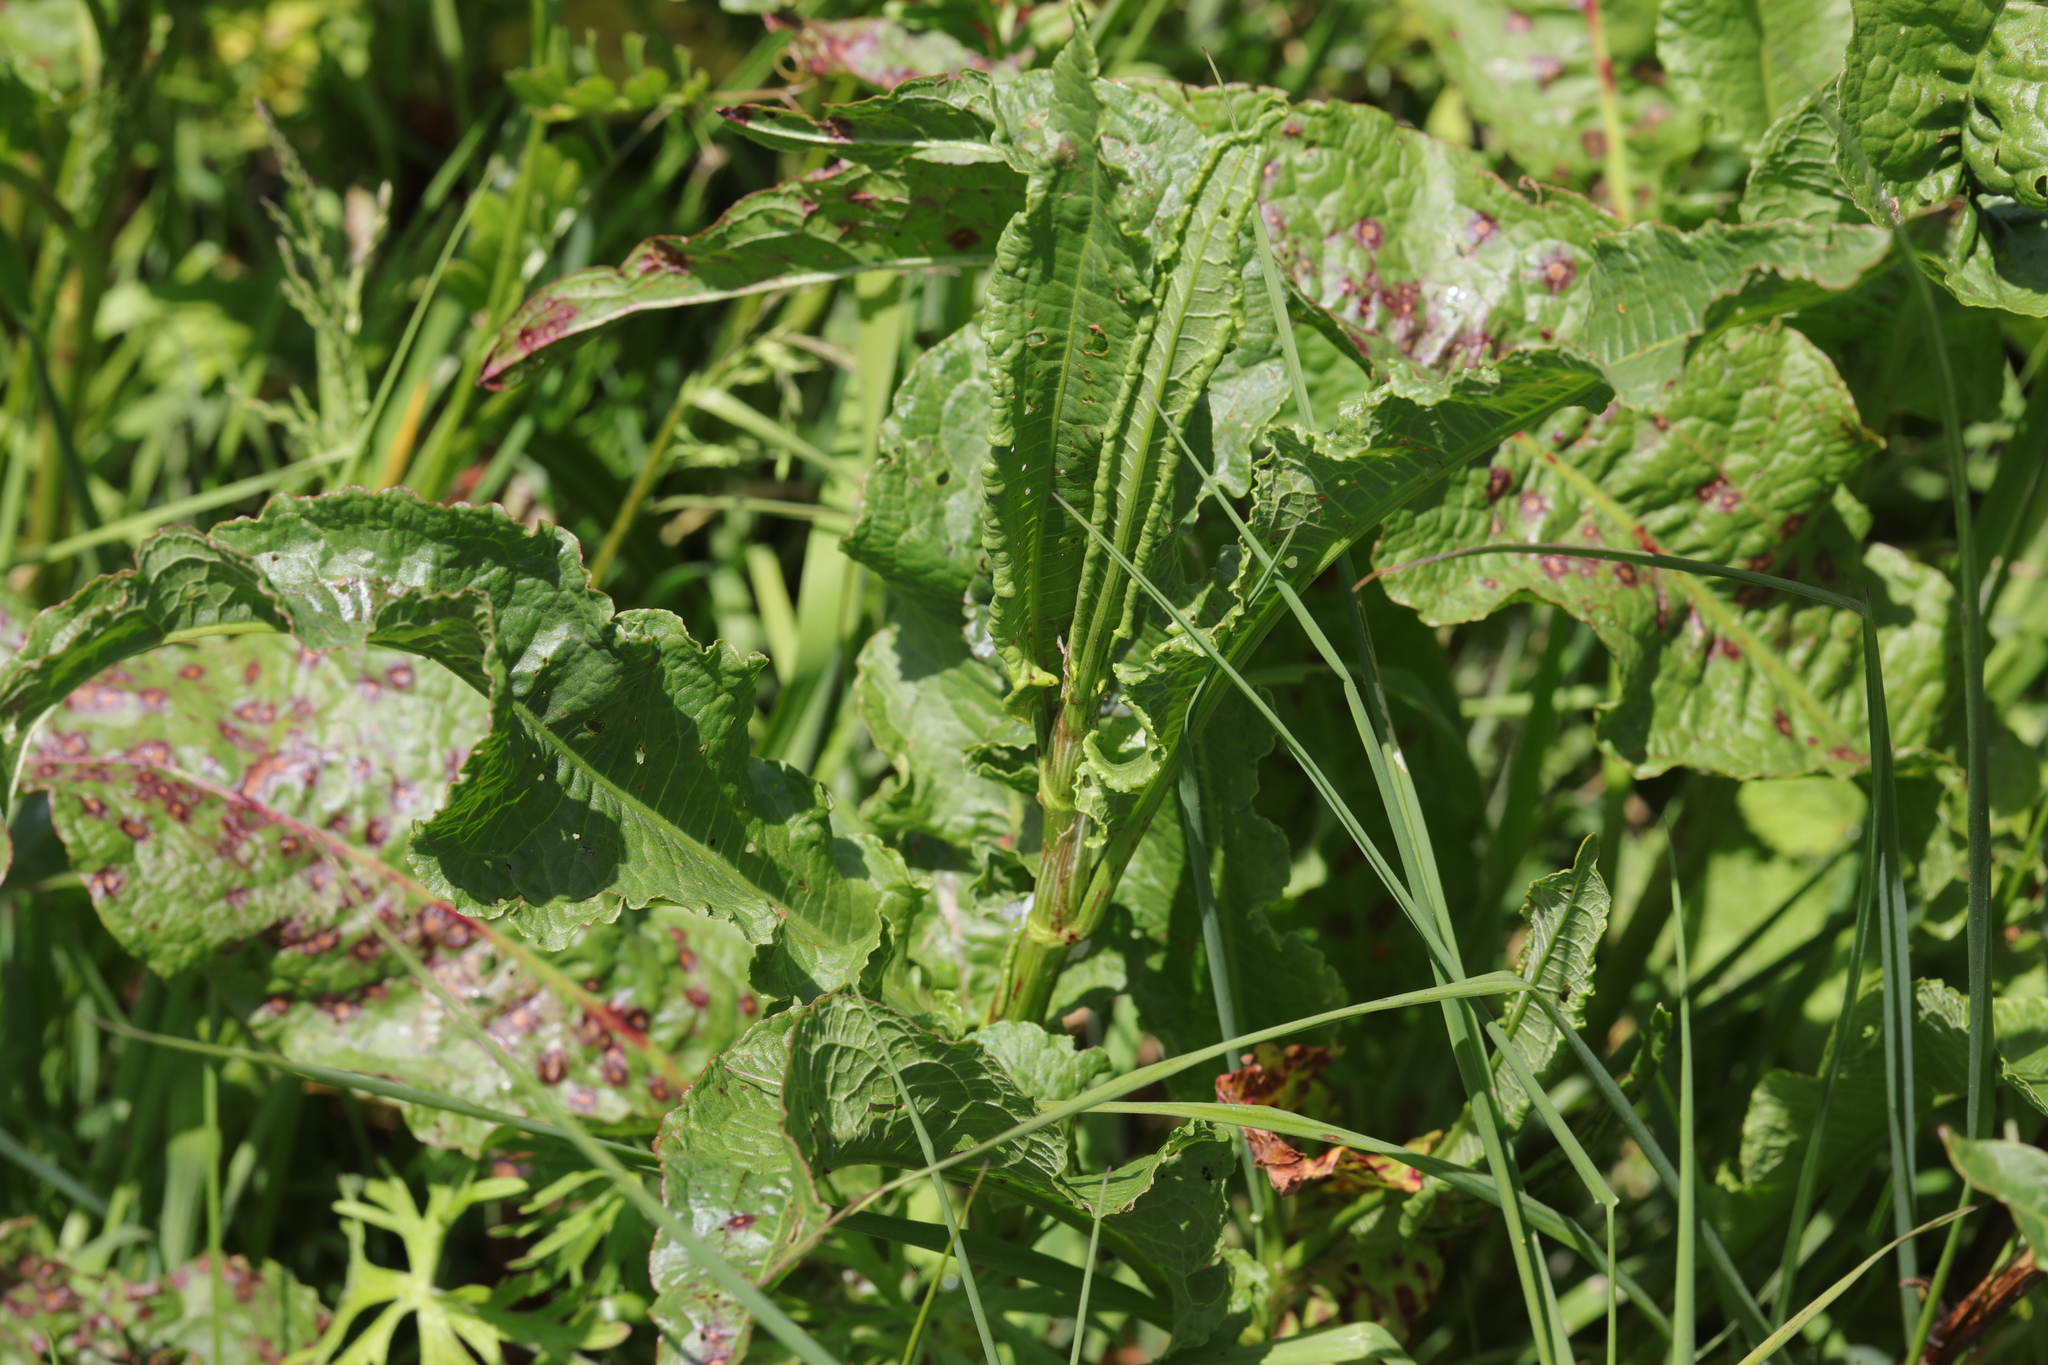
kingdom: Plantae
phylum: Tracheophyta
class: Magnoliopsida
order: Caryophyllales
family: Polygonaceae
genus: Rumex
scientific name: Rumex obtusifolius
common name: Bitter dock
